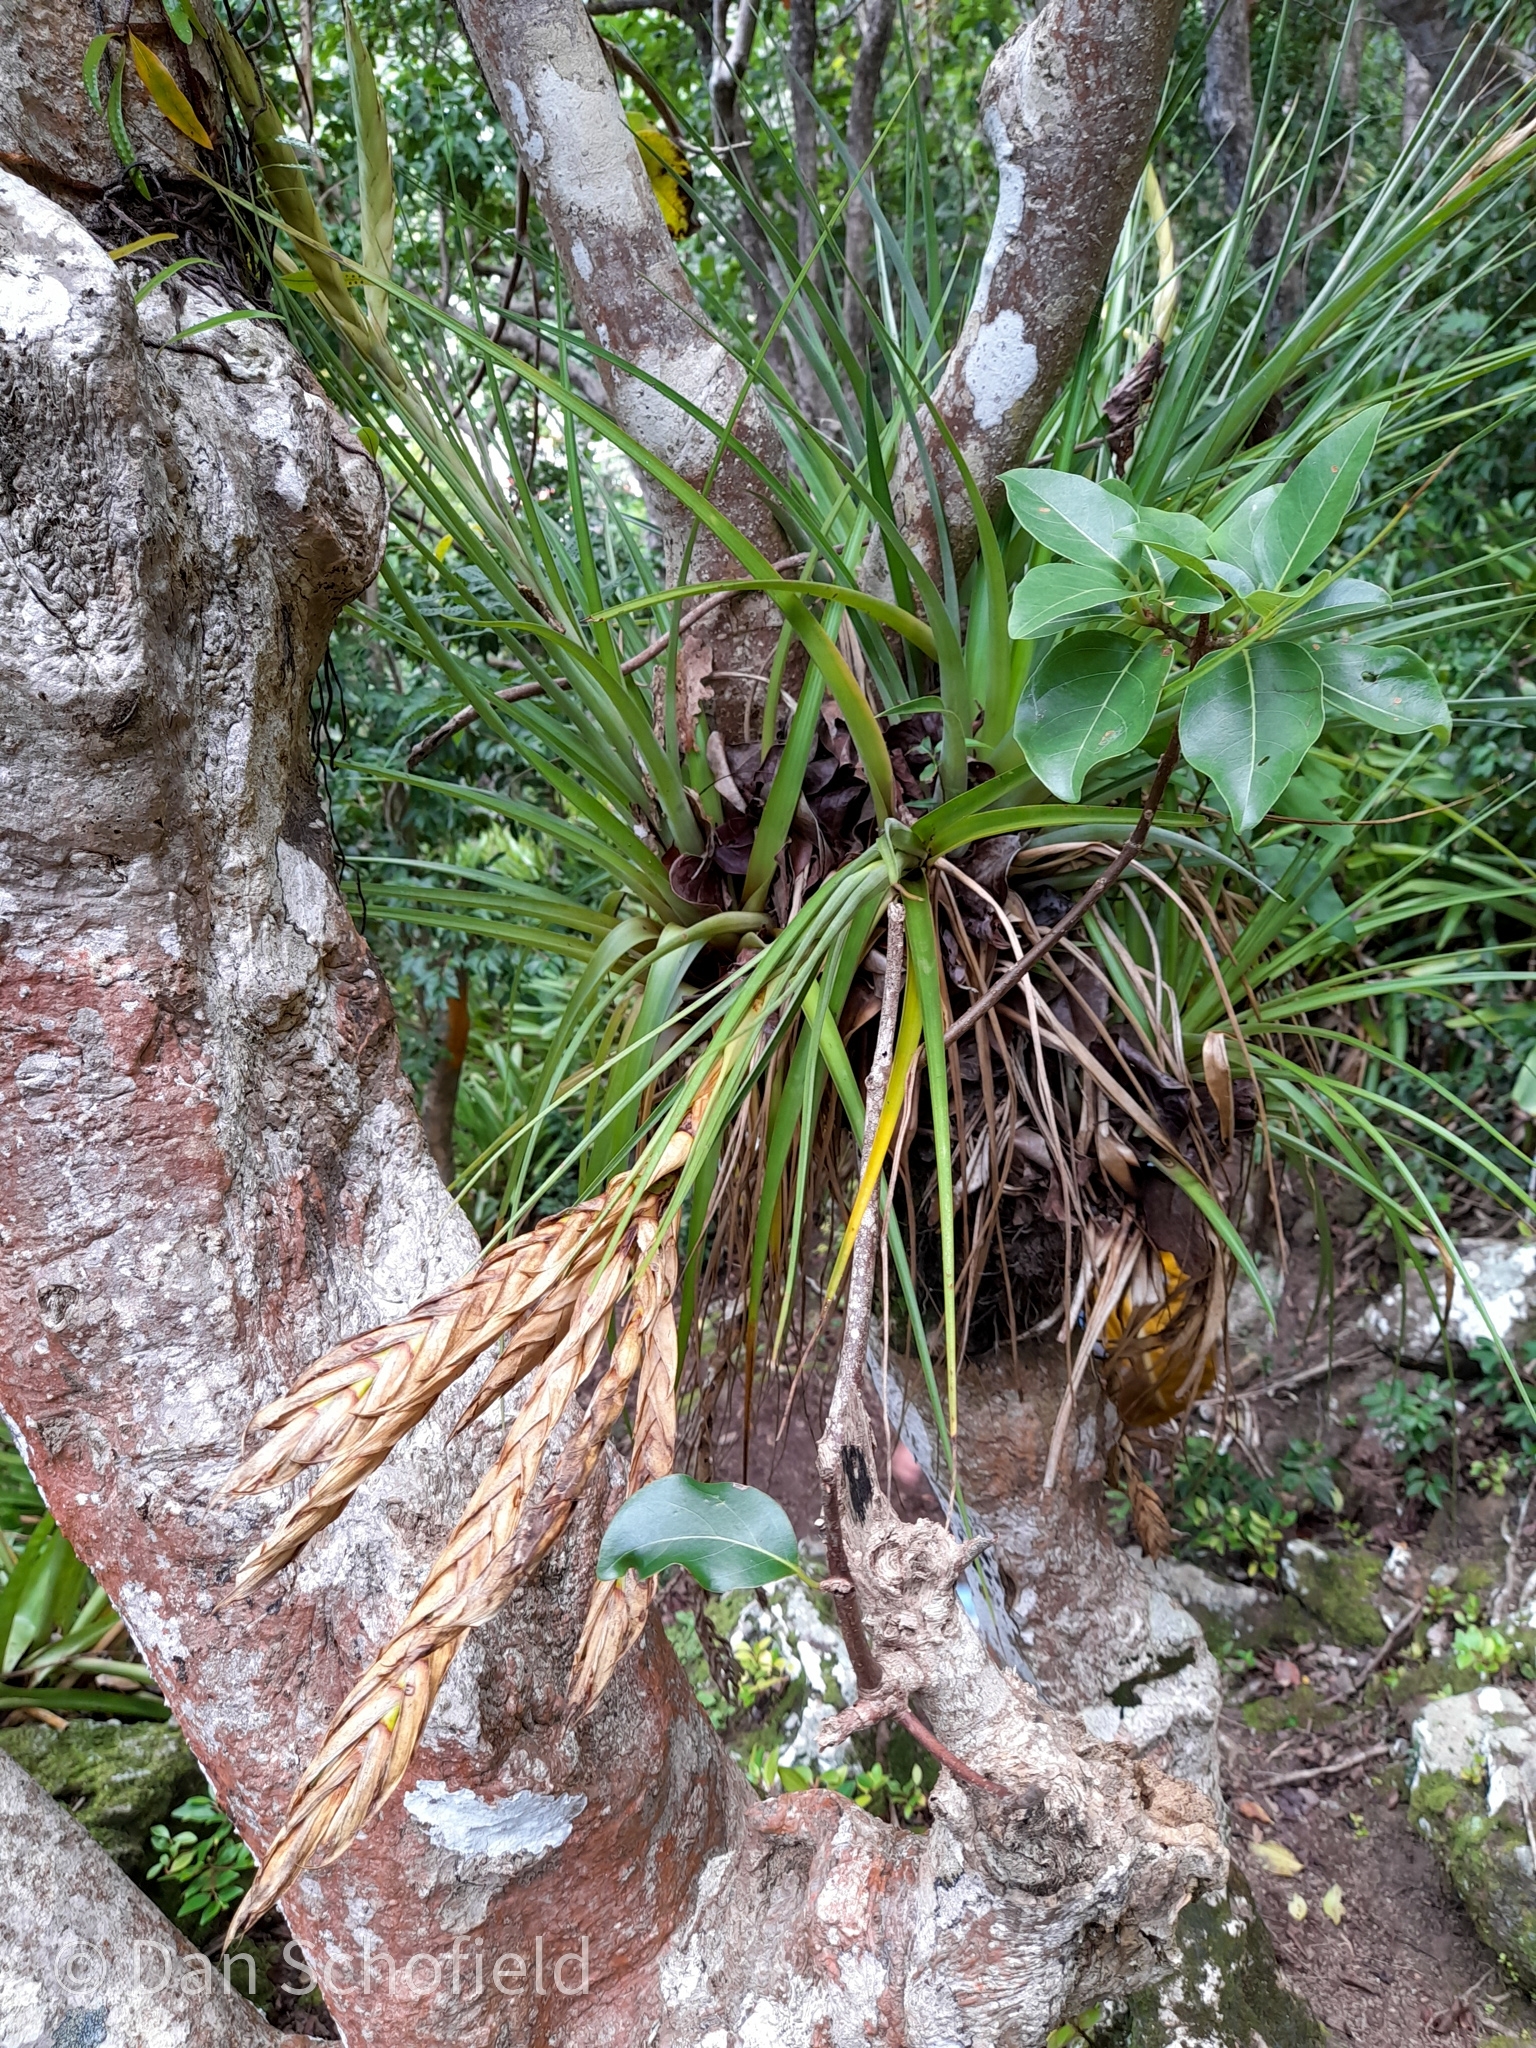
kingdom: Plantae
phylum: Tracheophyta
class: Liliopsida
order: Poales
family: Bromeliaceae
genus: Tillandsia
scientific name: Tillandsia fasciculata
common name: Giant airplant
